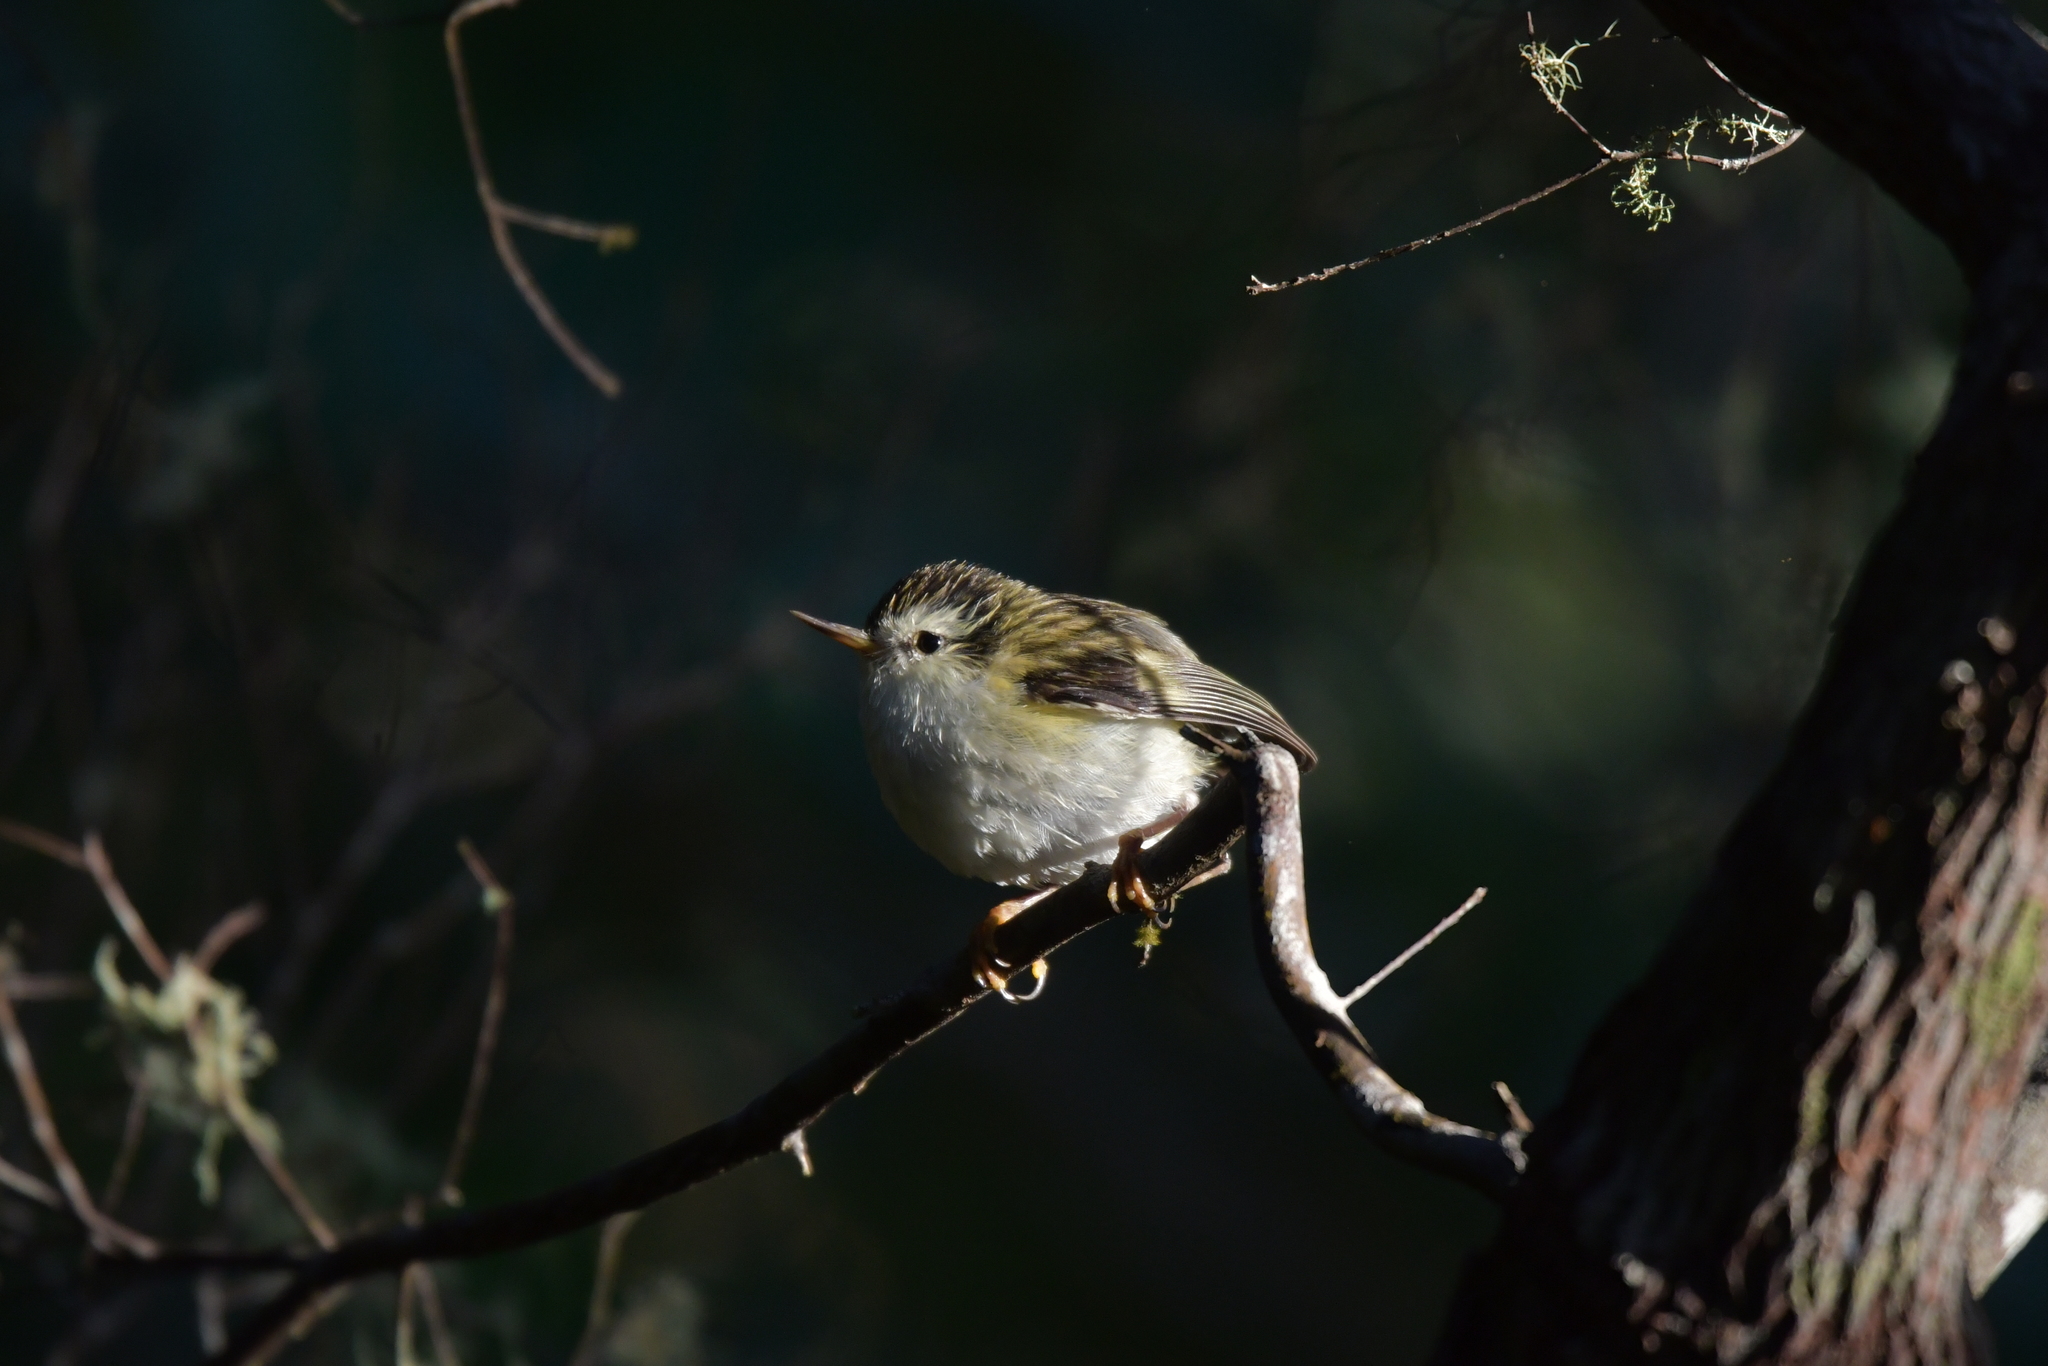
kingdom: Animalia
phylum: Chordata
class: Aves
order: Passeriformes
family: Acanthisittidae
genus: Acanthisitta
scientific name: Acanthisitta chloris
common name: Rifleman
